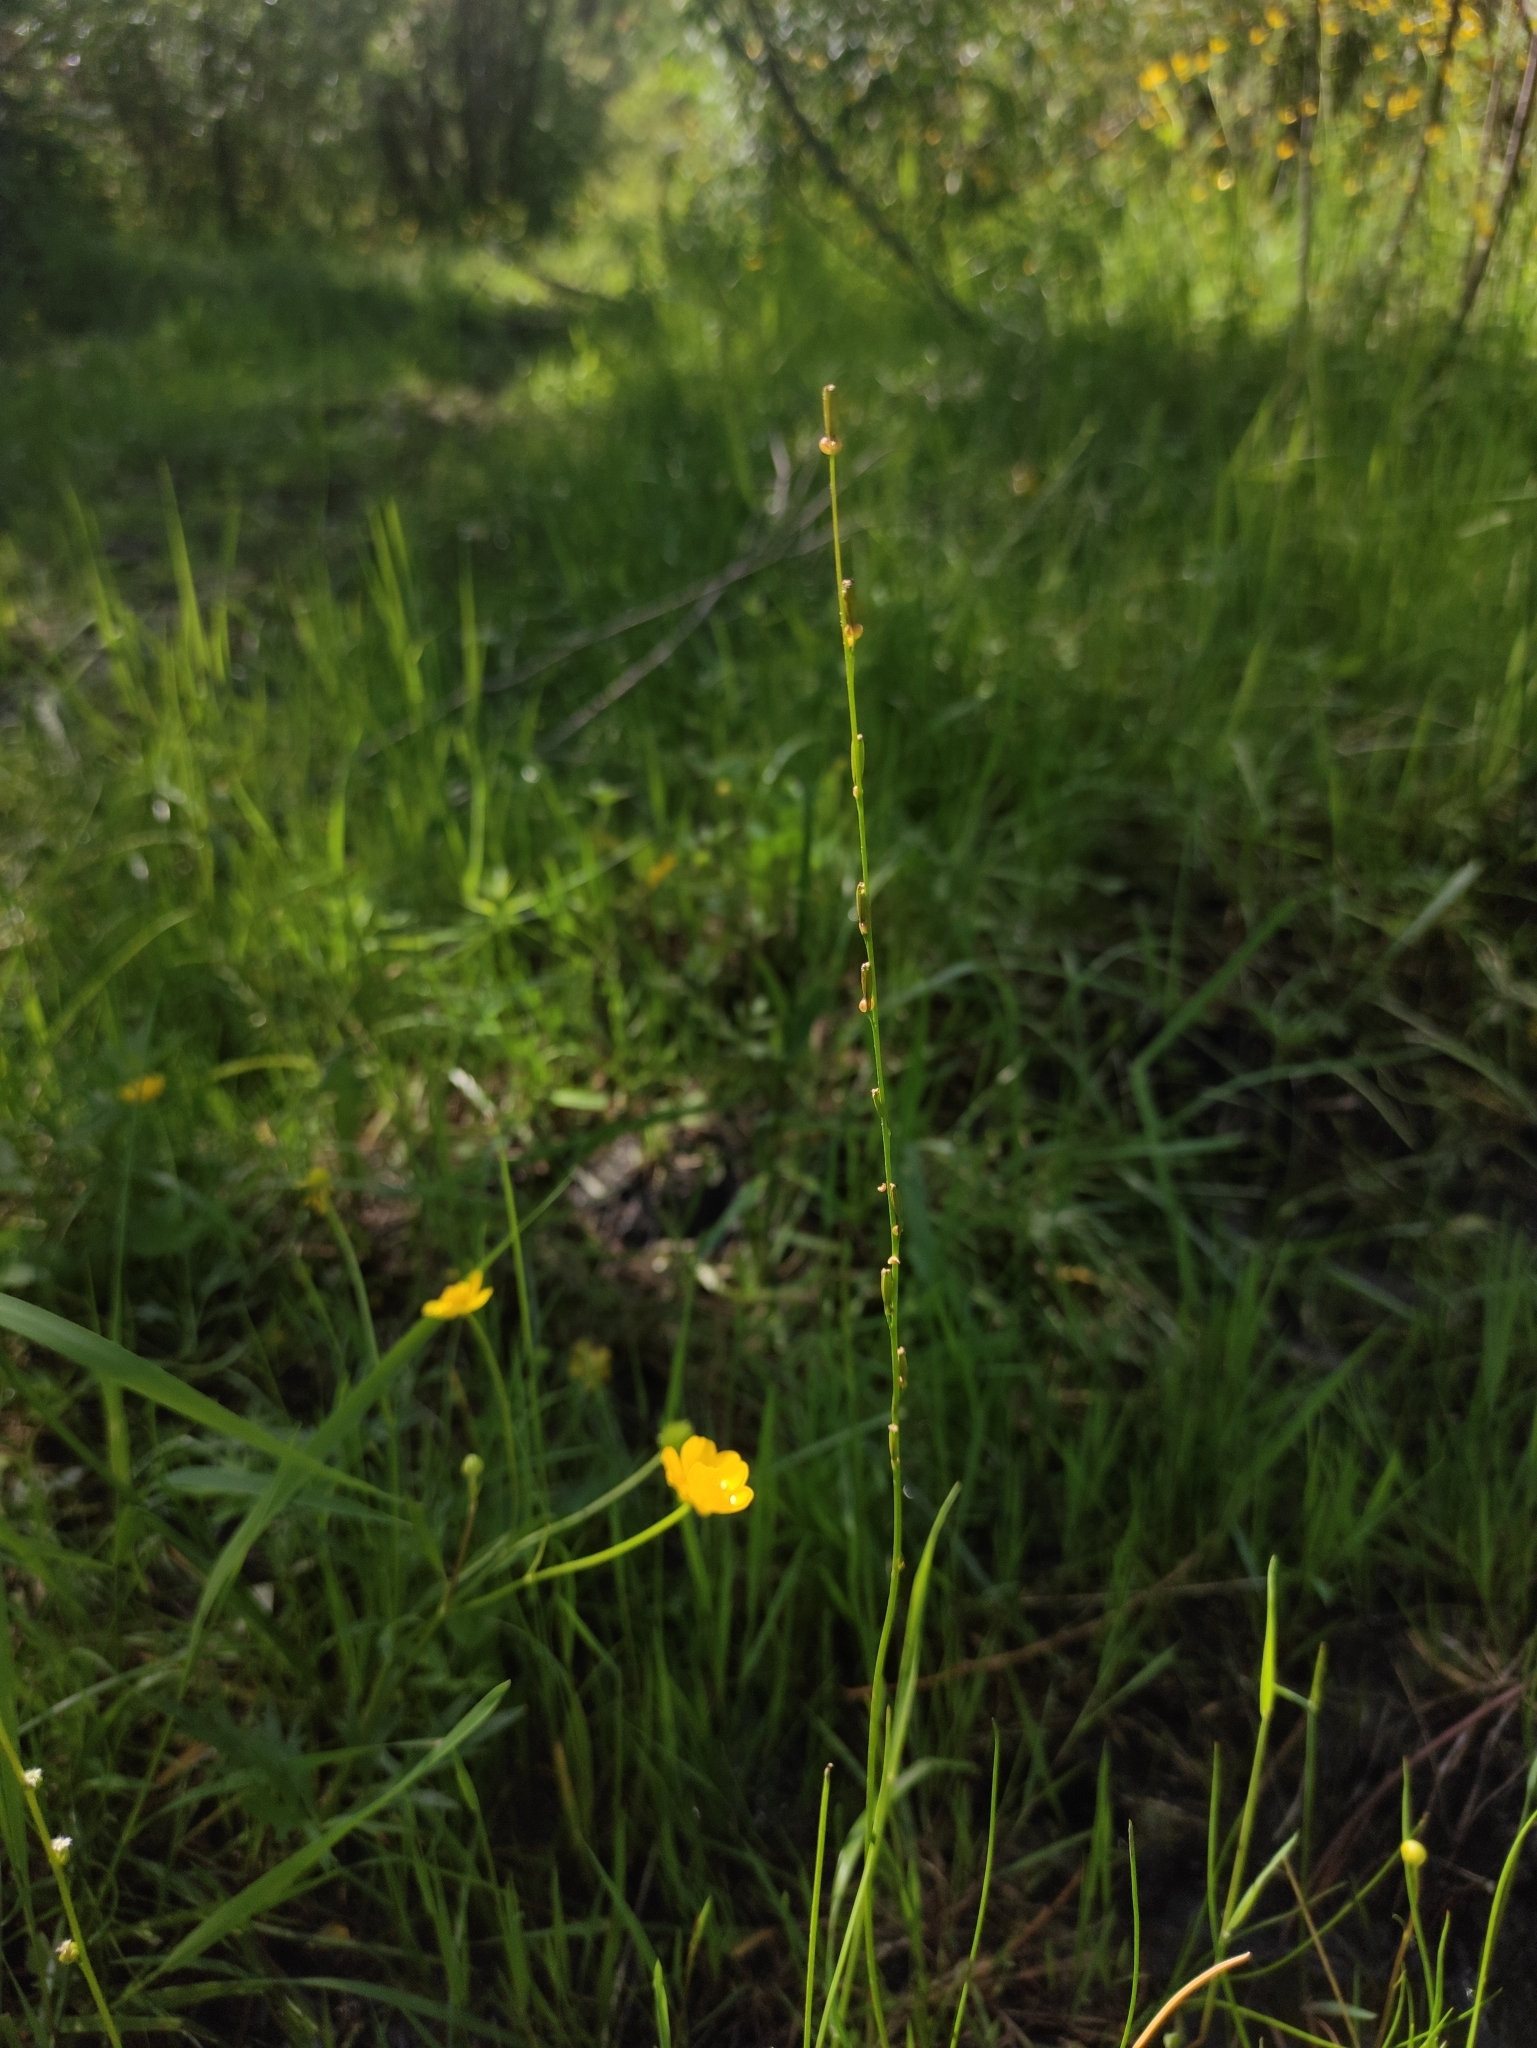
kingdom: Plantae
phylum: Tracheophyta
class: Liliopsida
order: Alismatales
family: Juncaginaceae
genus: Triglochin
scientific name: Triglochin palustris
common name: Marsh arrowgrass
